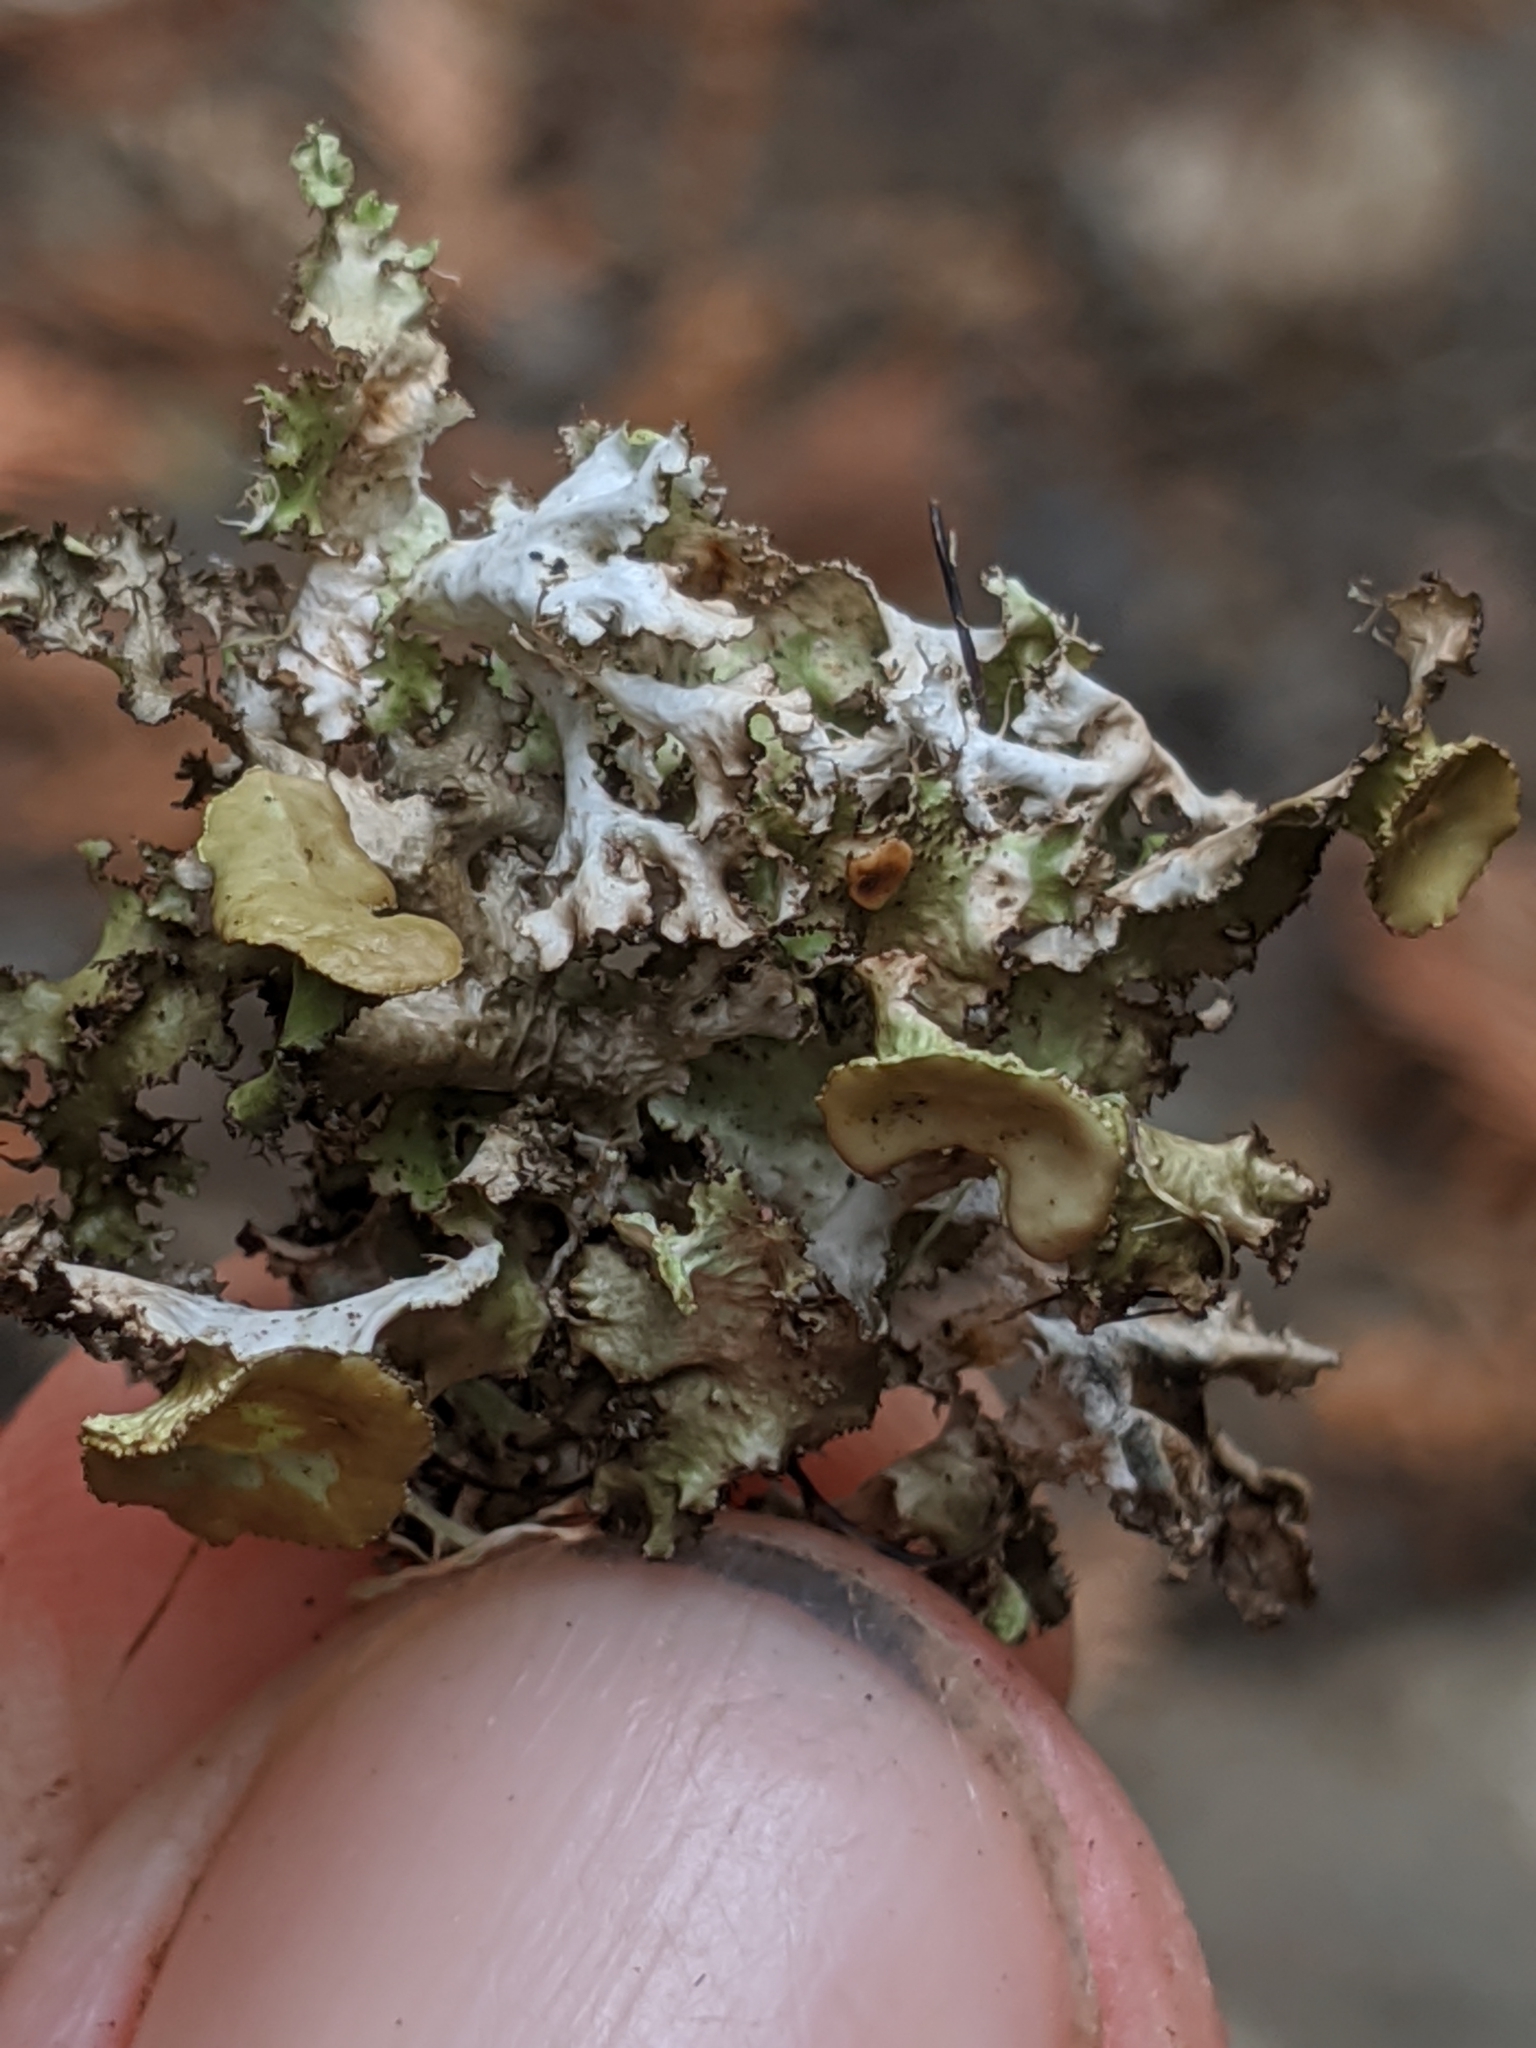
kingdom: Fungi
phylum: Ascomycota
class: Lecanoromycetes
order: Lecanorales
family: Parmeliaceae
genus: Nephromopsis
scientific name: Nephromopsis orbata
